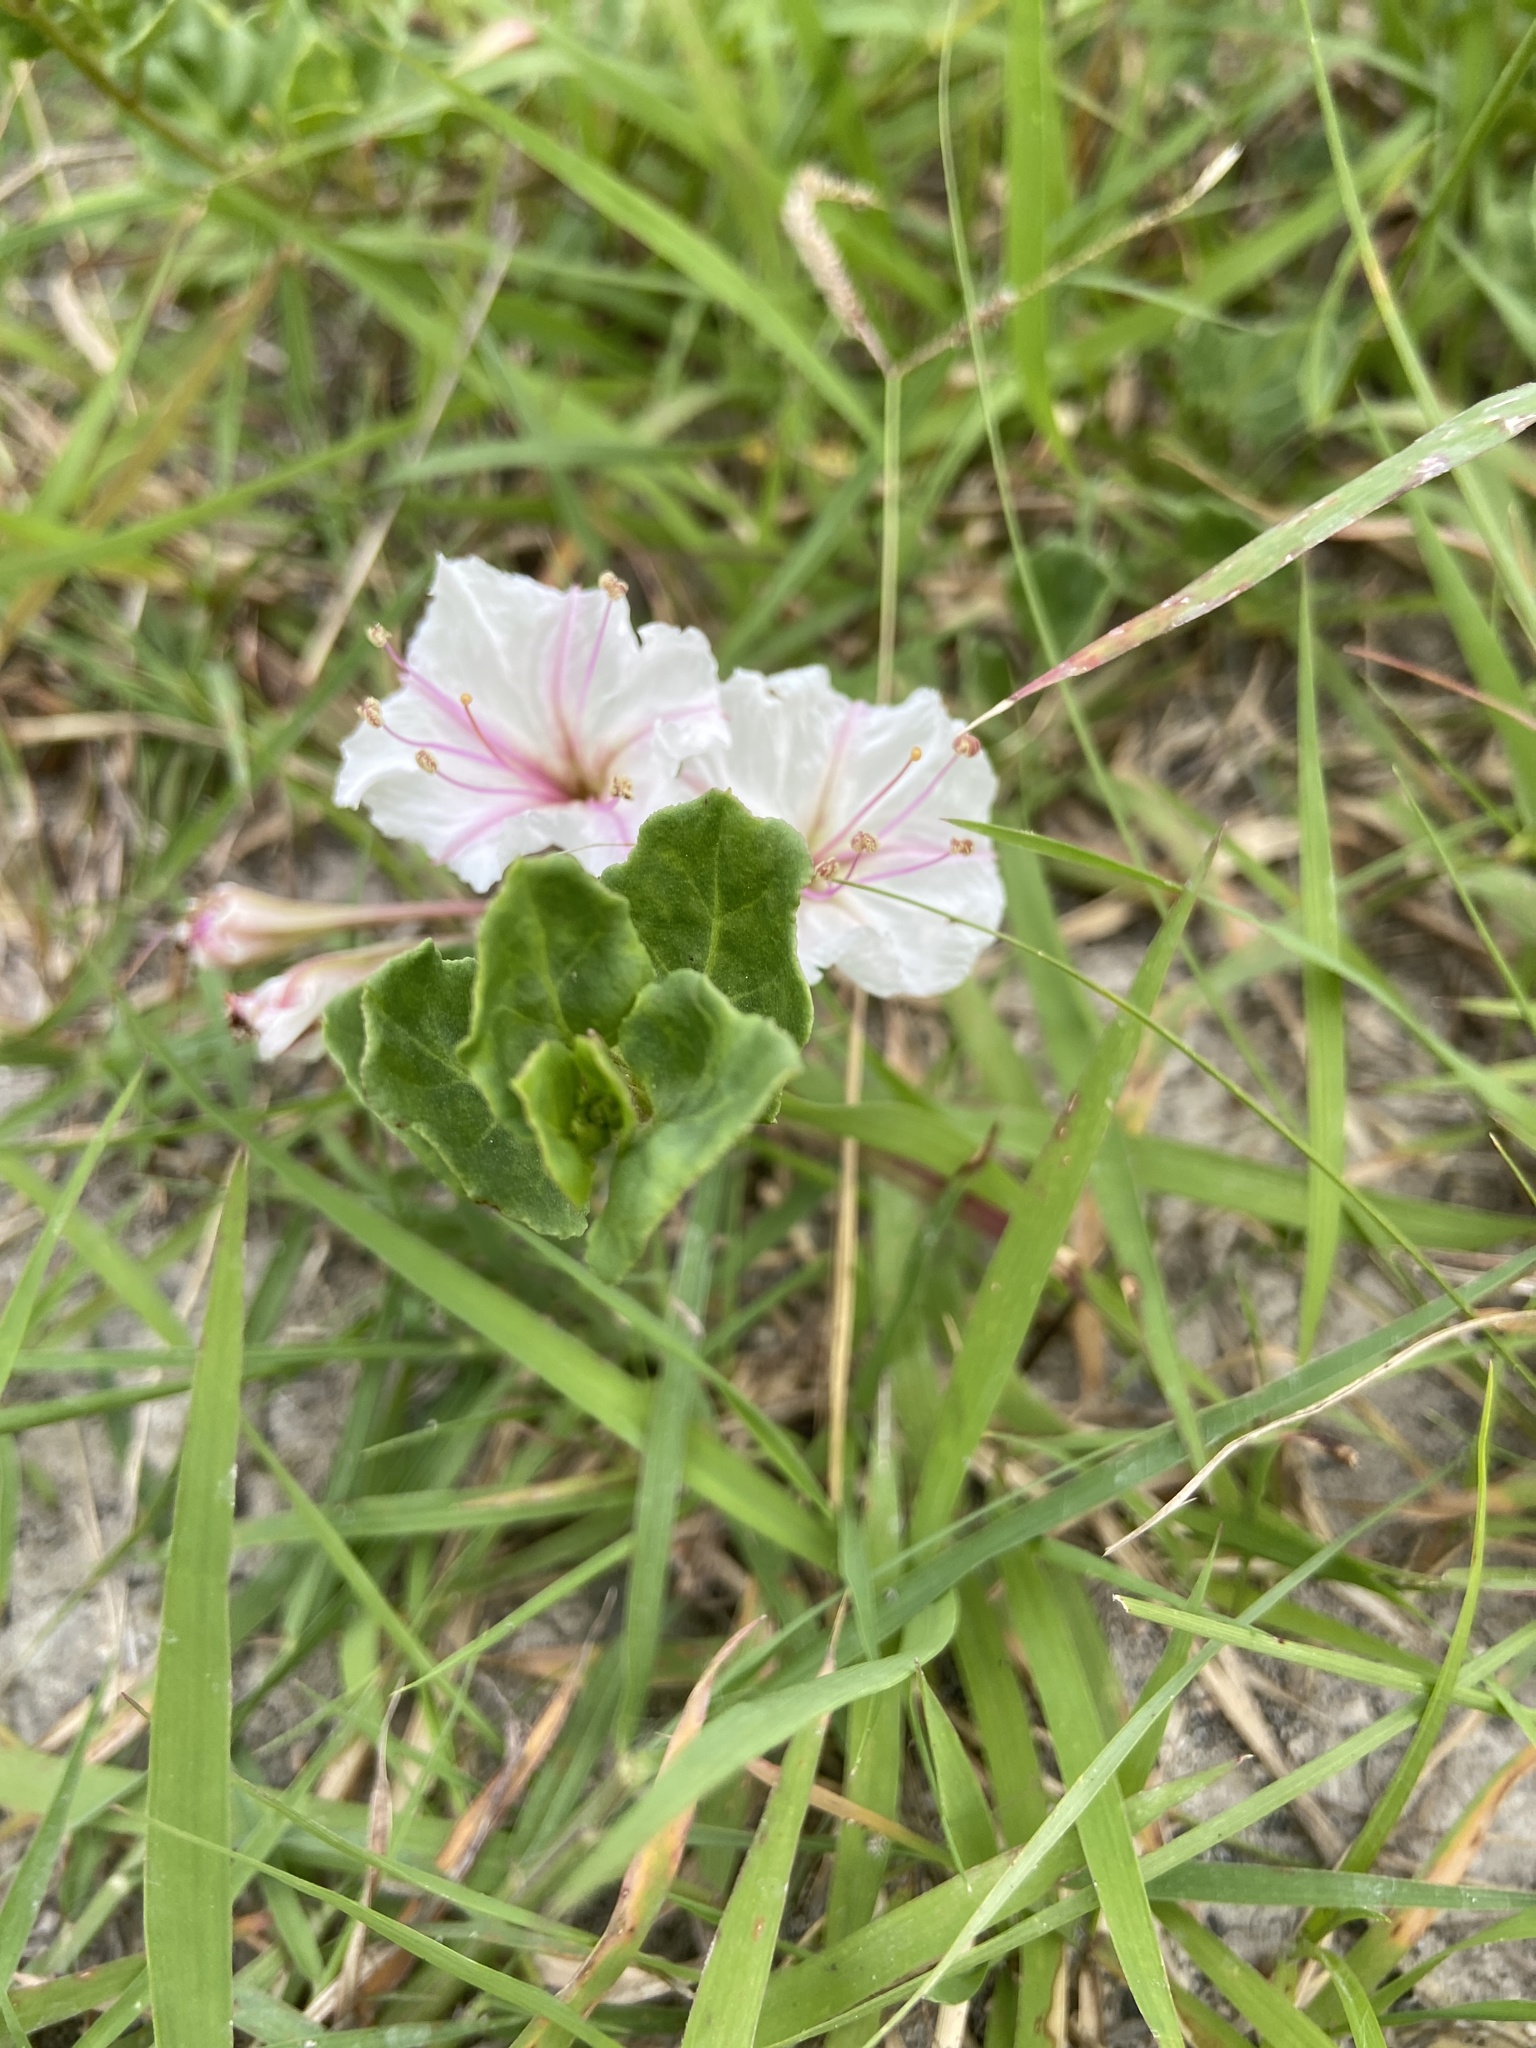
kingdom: Plantae
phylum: Tracheophyta
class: Magnoliopsida
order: Caryophyllales
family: Nyctaginaceae
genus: Acleisanthes
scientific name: Acleisanthes obtusa
